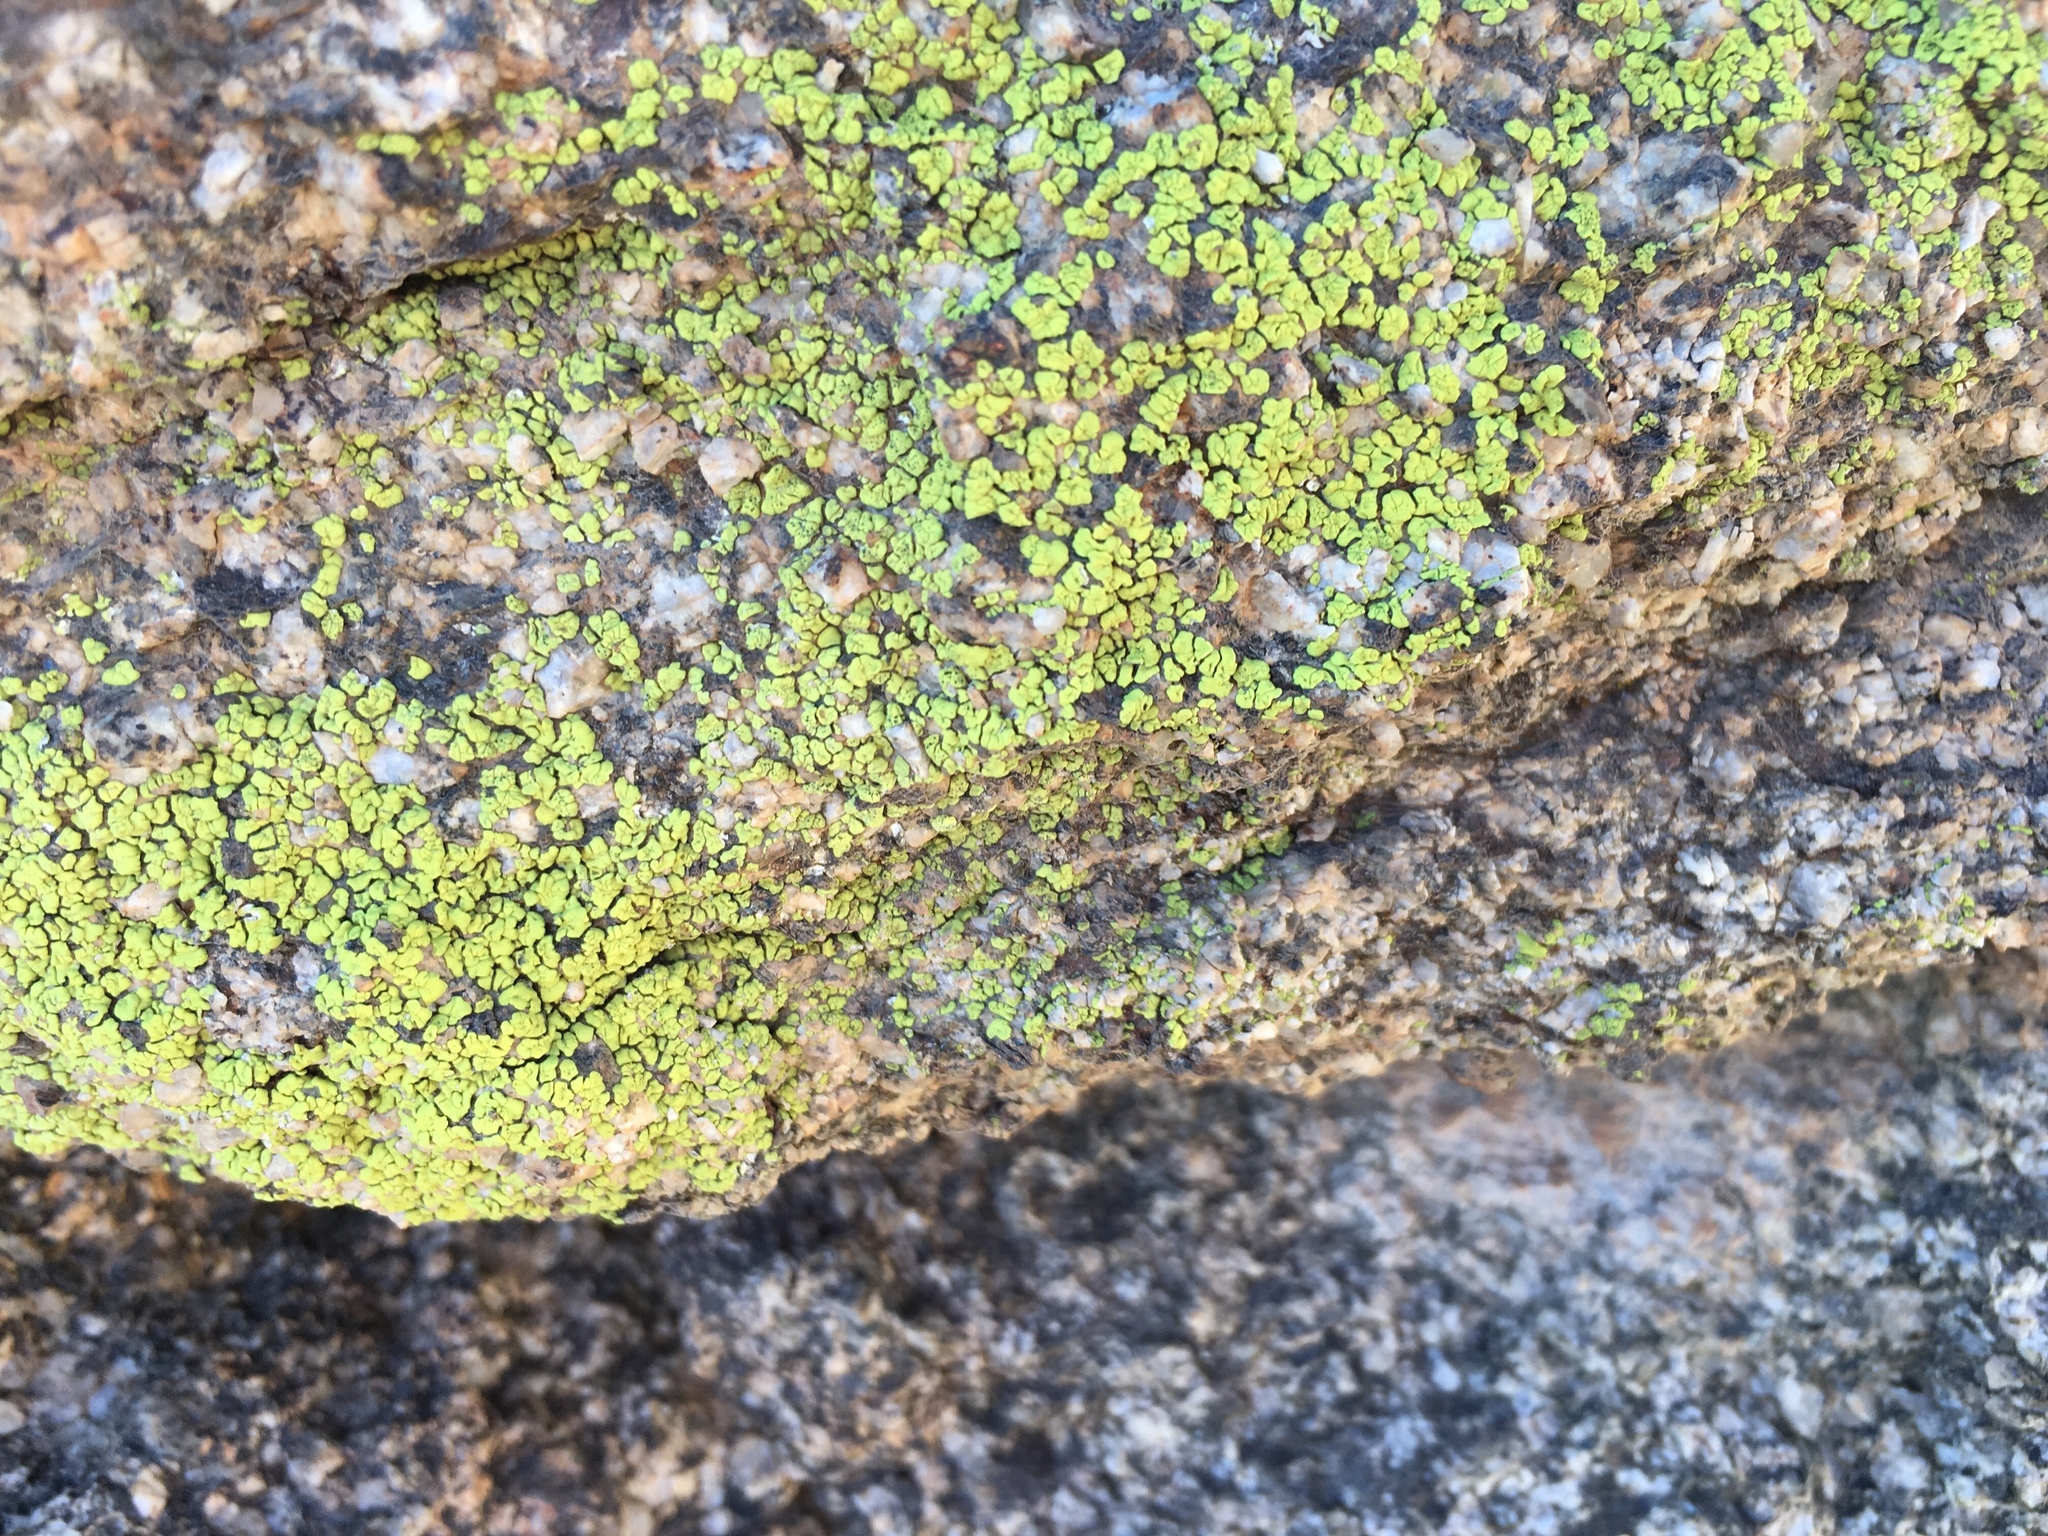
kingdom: Fungi
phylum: Ascomycota
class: Lecanoromycetes
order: Acarosporales
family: Acarosporaceae
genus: Acarospora
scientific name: Acarospora socialis
